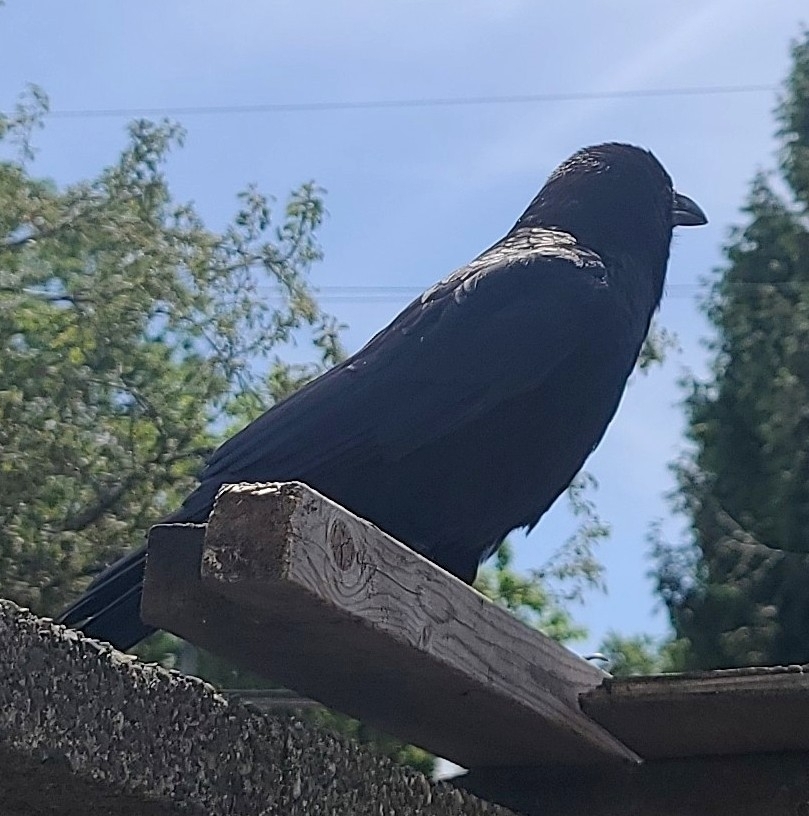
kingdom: Animalia
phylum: Chordata
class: Aves
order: Passeriformes
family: Corvidae
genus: Corvus
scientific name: Corvus brachyrhynchos
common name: American crow
